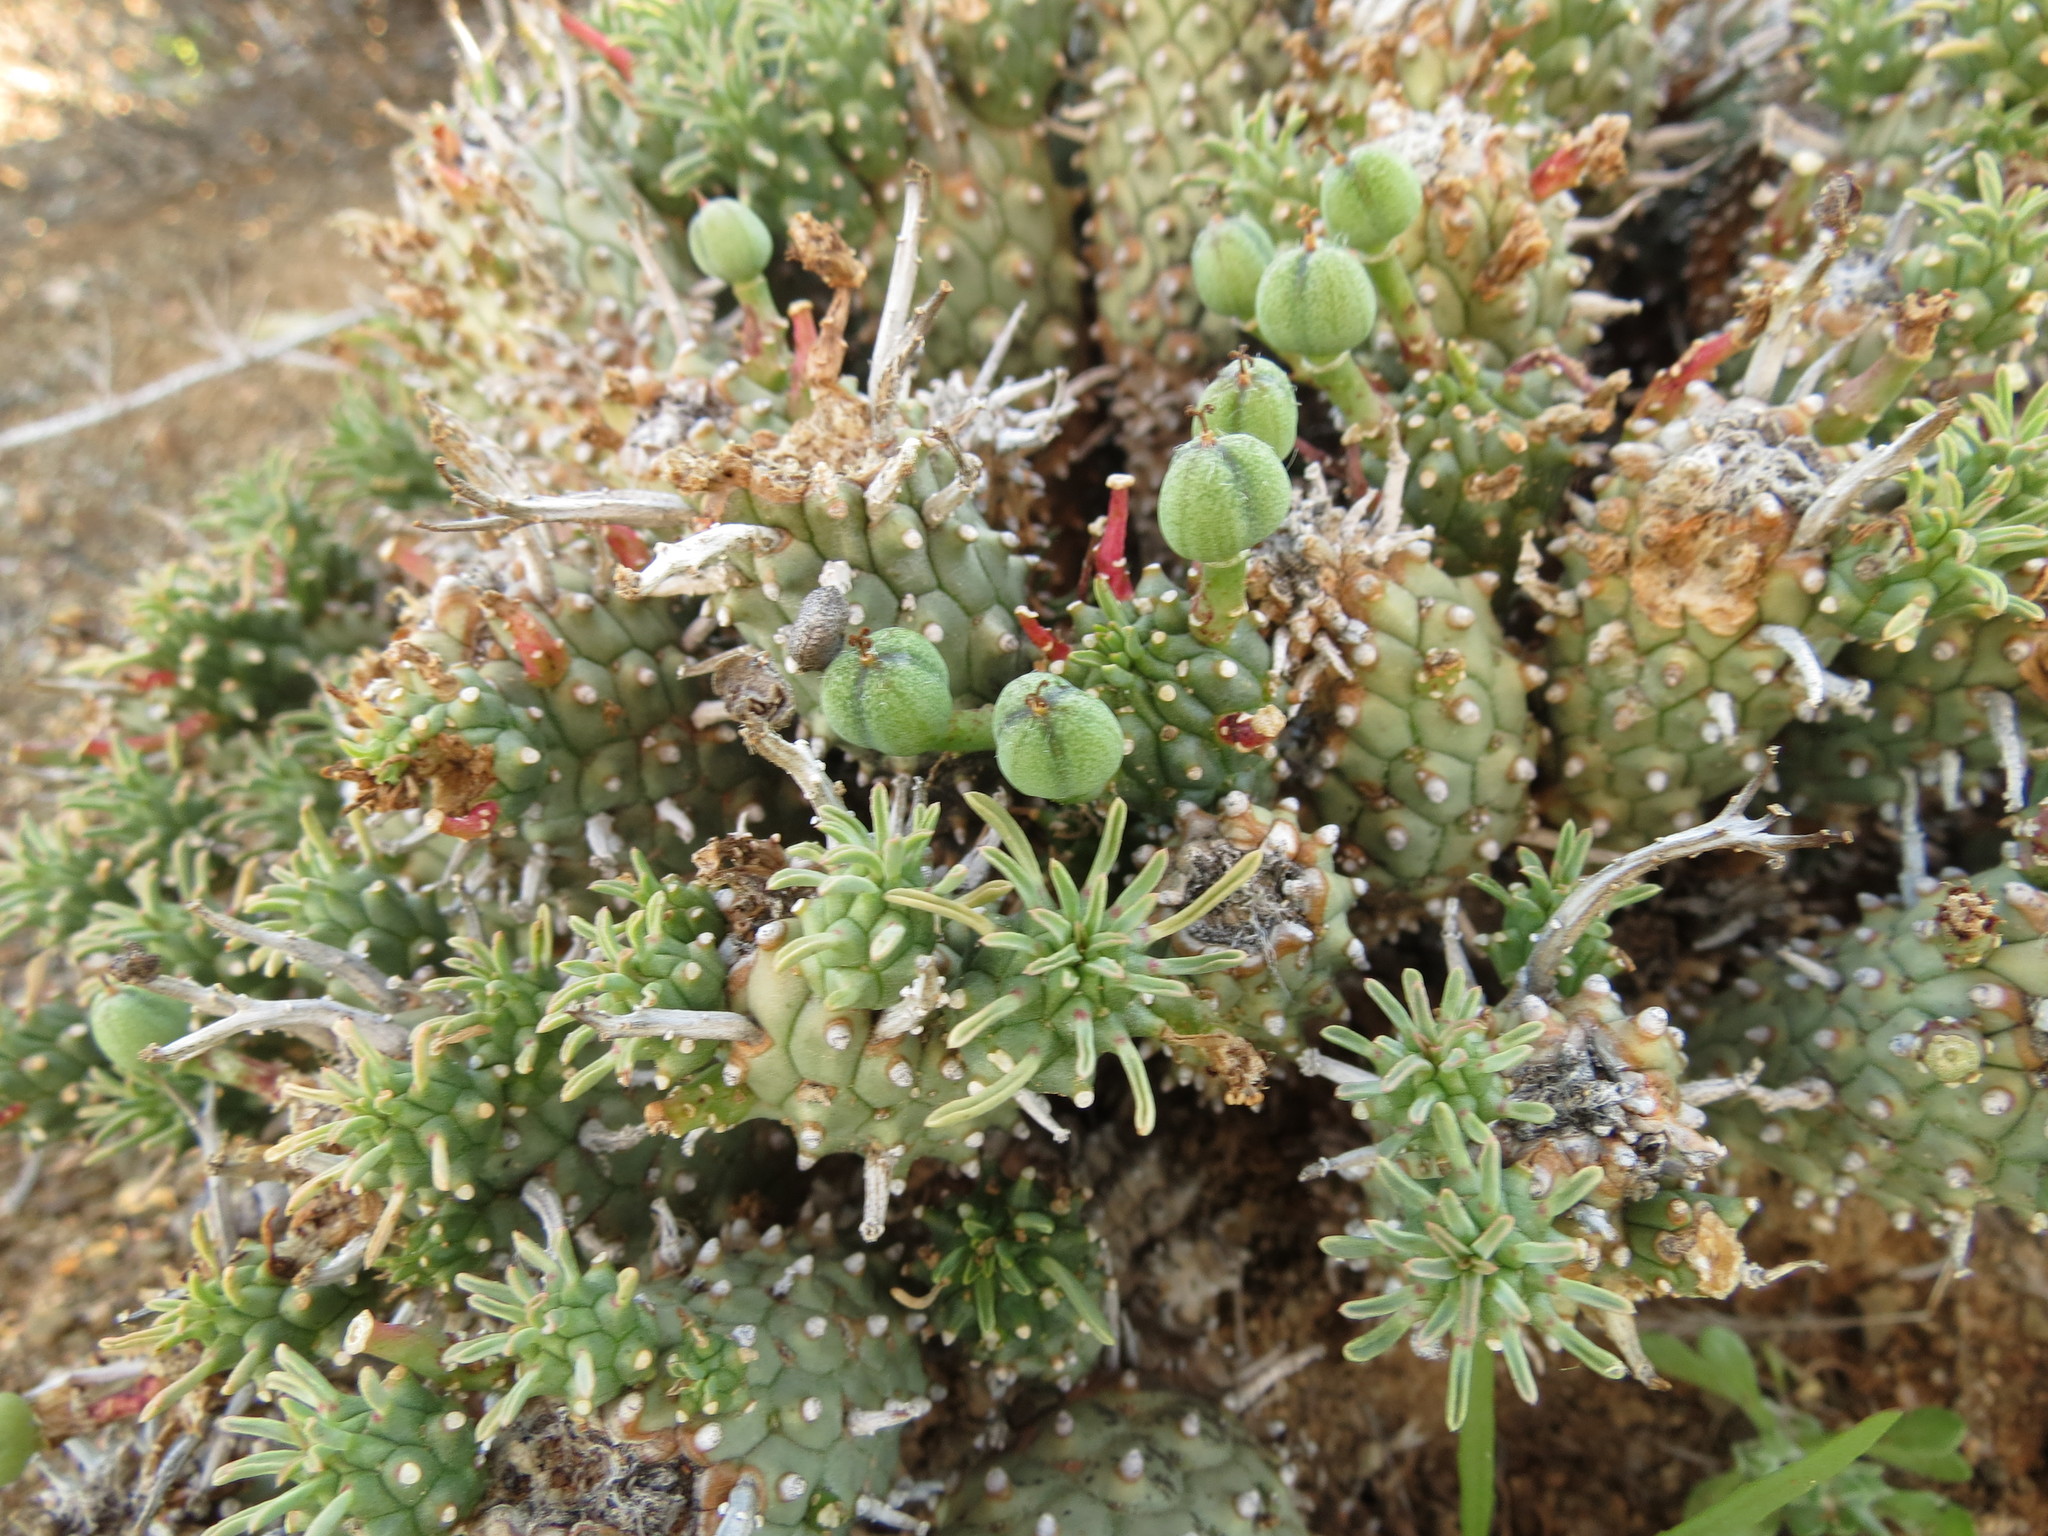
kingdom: Plantae
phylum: Tracheophyta
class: Magnoliopsida
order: Malpighiales
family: Euphorbiaceae
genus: Euphorbia
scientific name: Euphorbia braunsii
